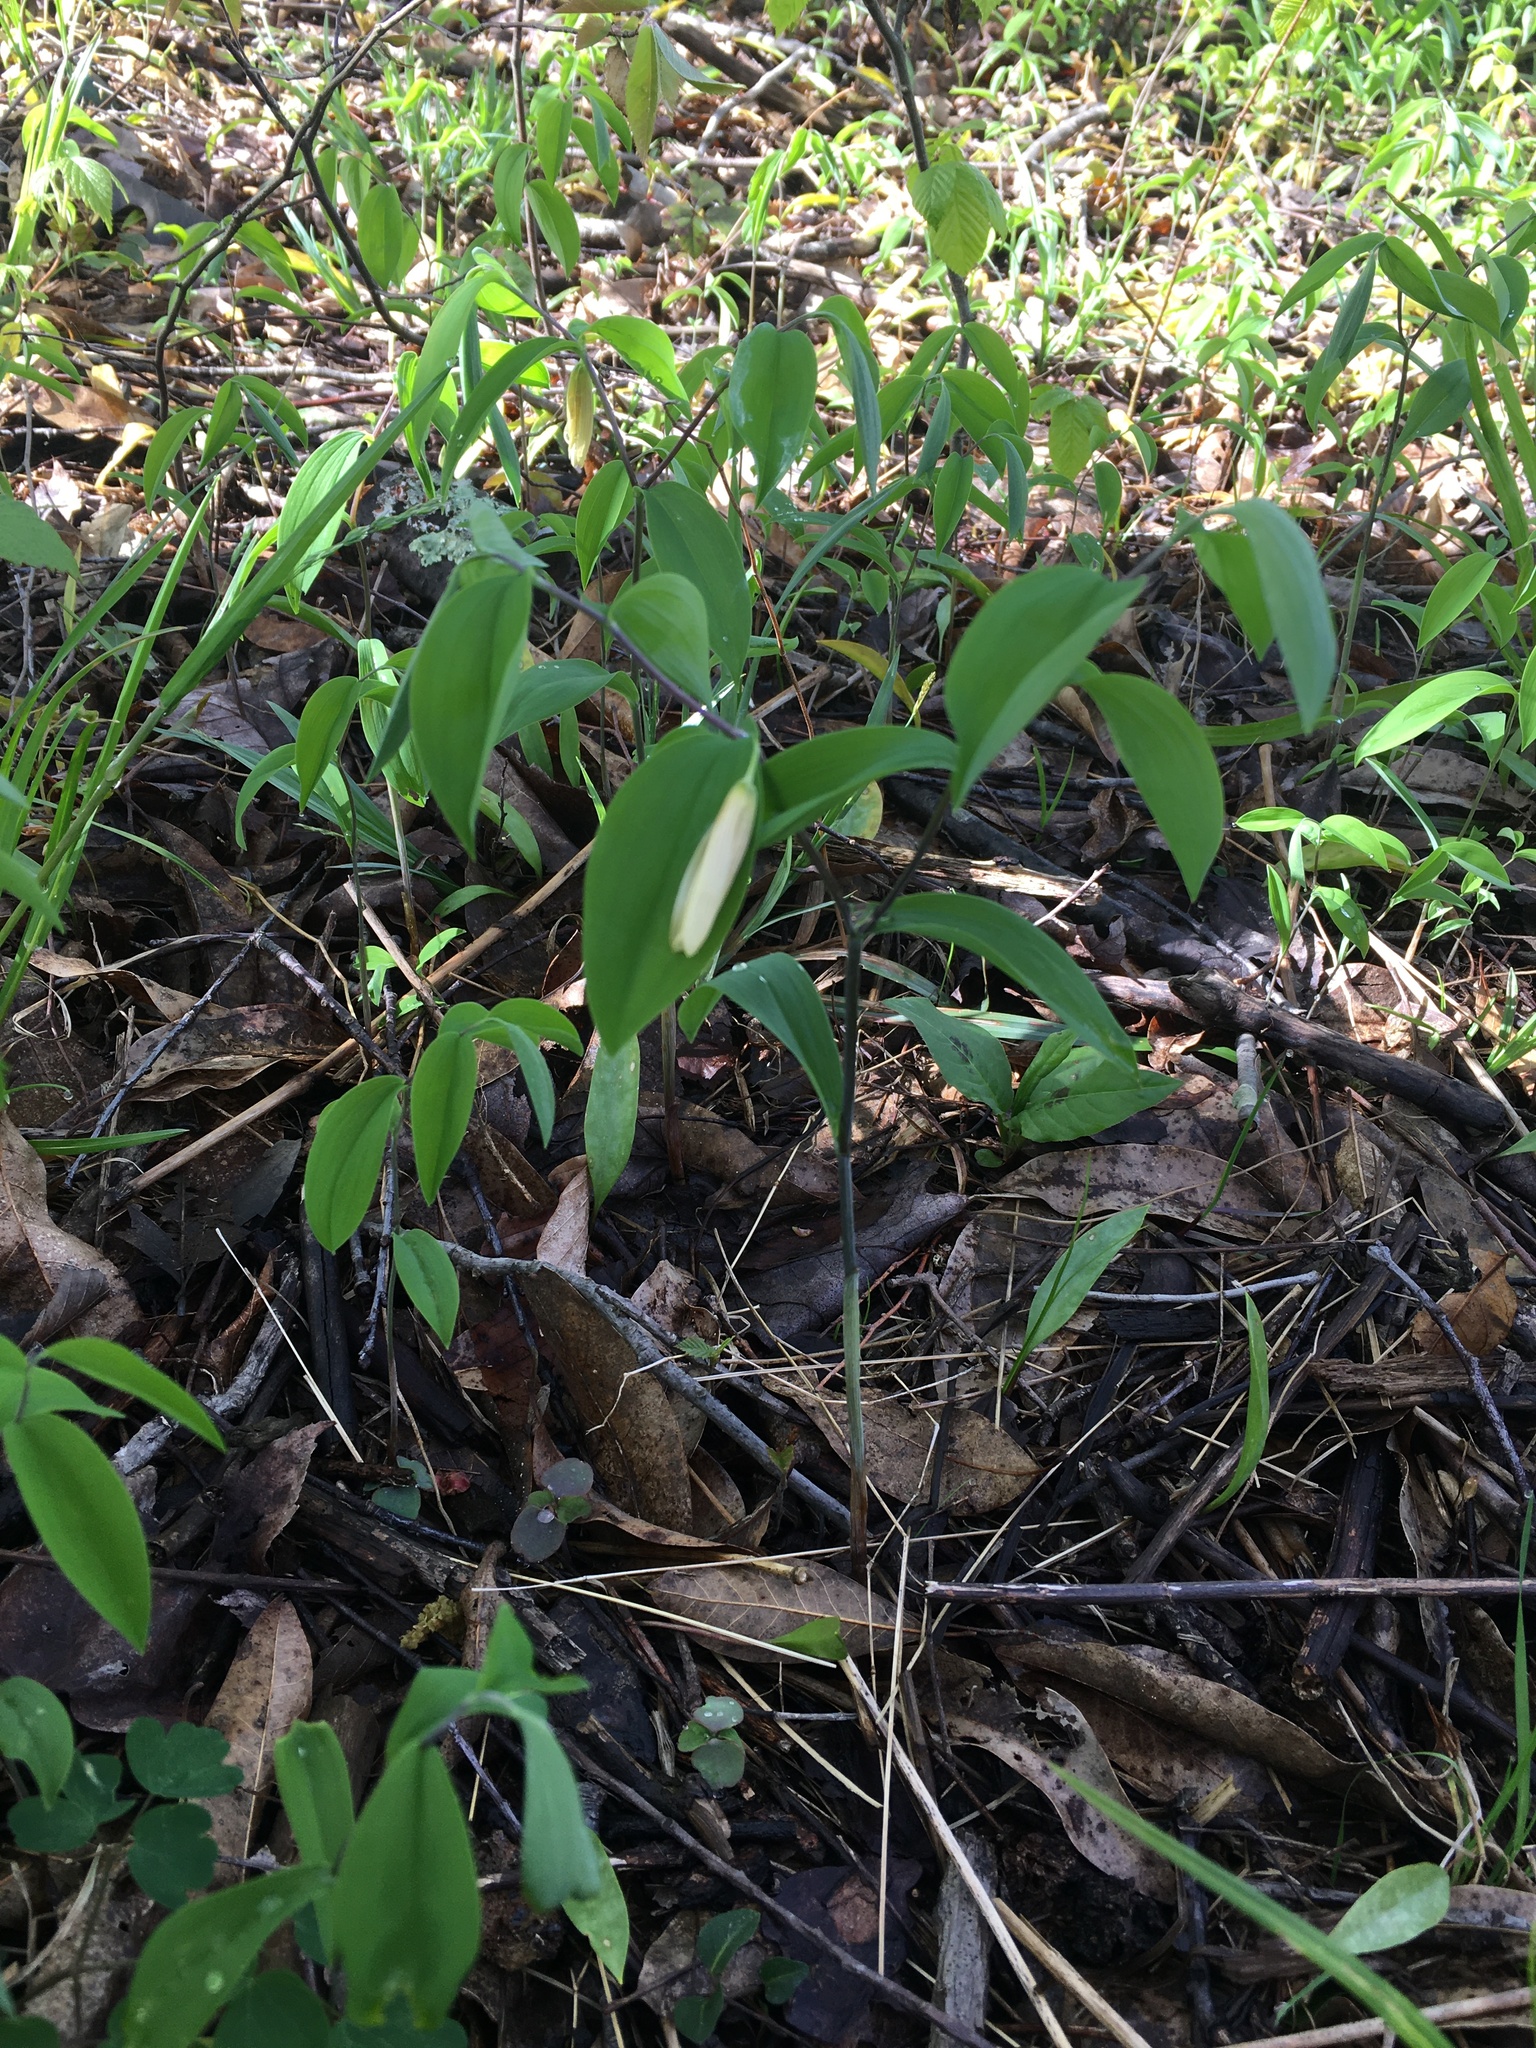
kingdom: Plantae
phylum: Tracheophyta
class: Liliopsida
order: Liliales
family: Colchicaceae
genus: Uvularia
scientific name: Uvularia sessilifolia
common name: Straw-lily
